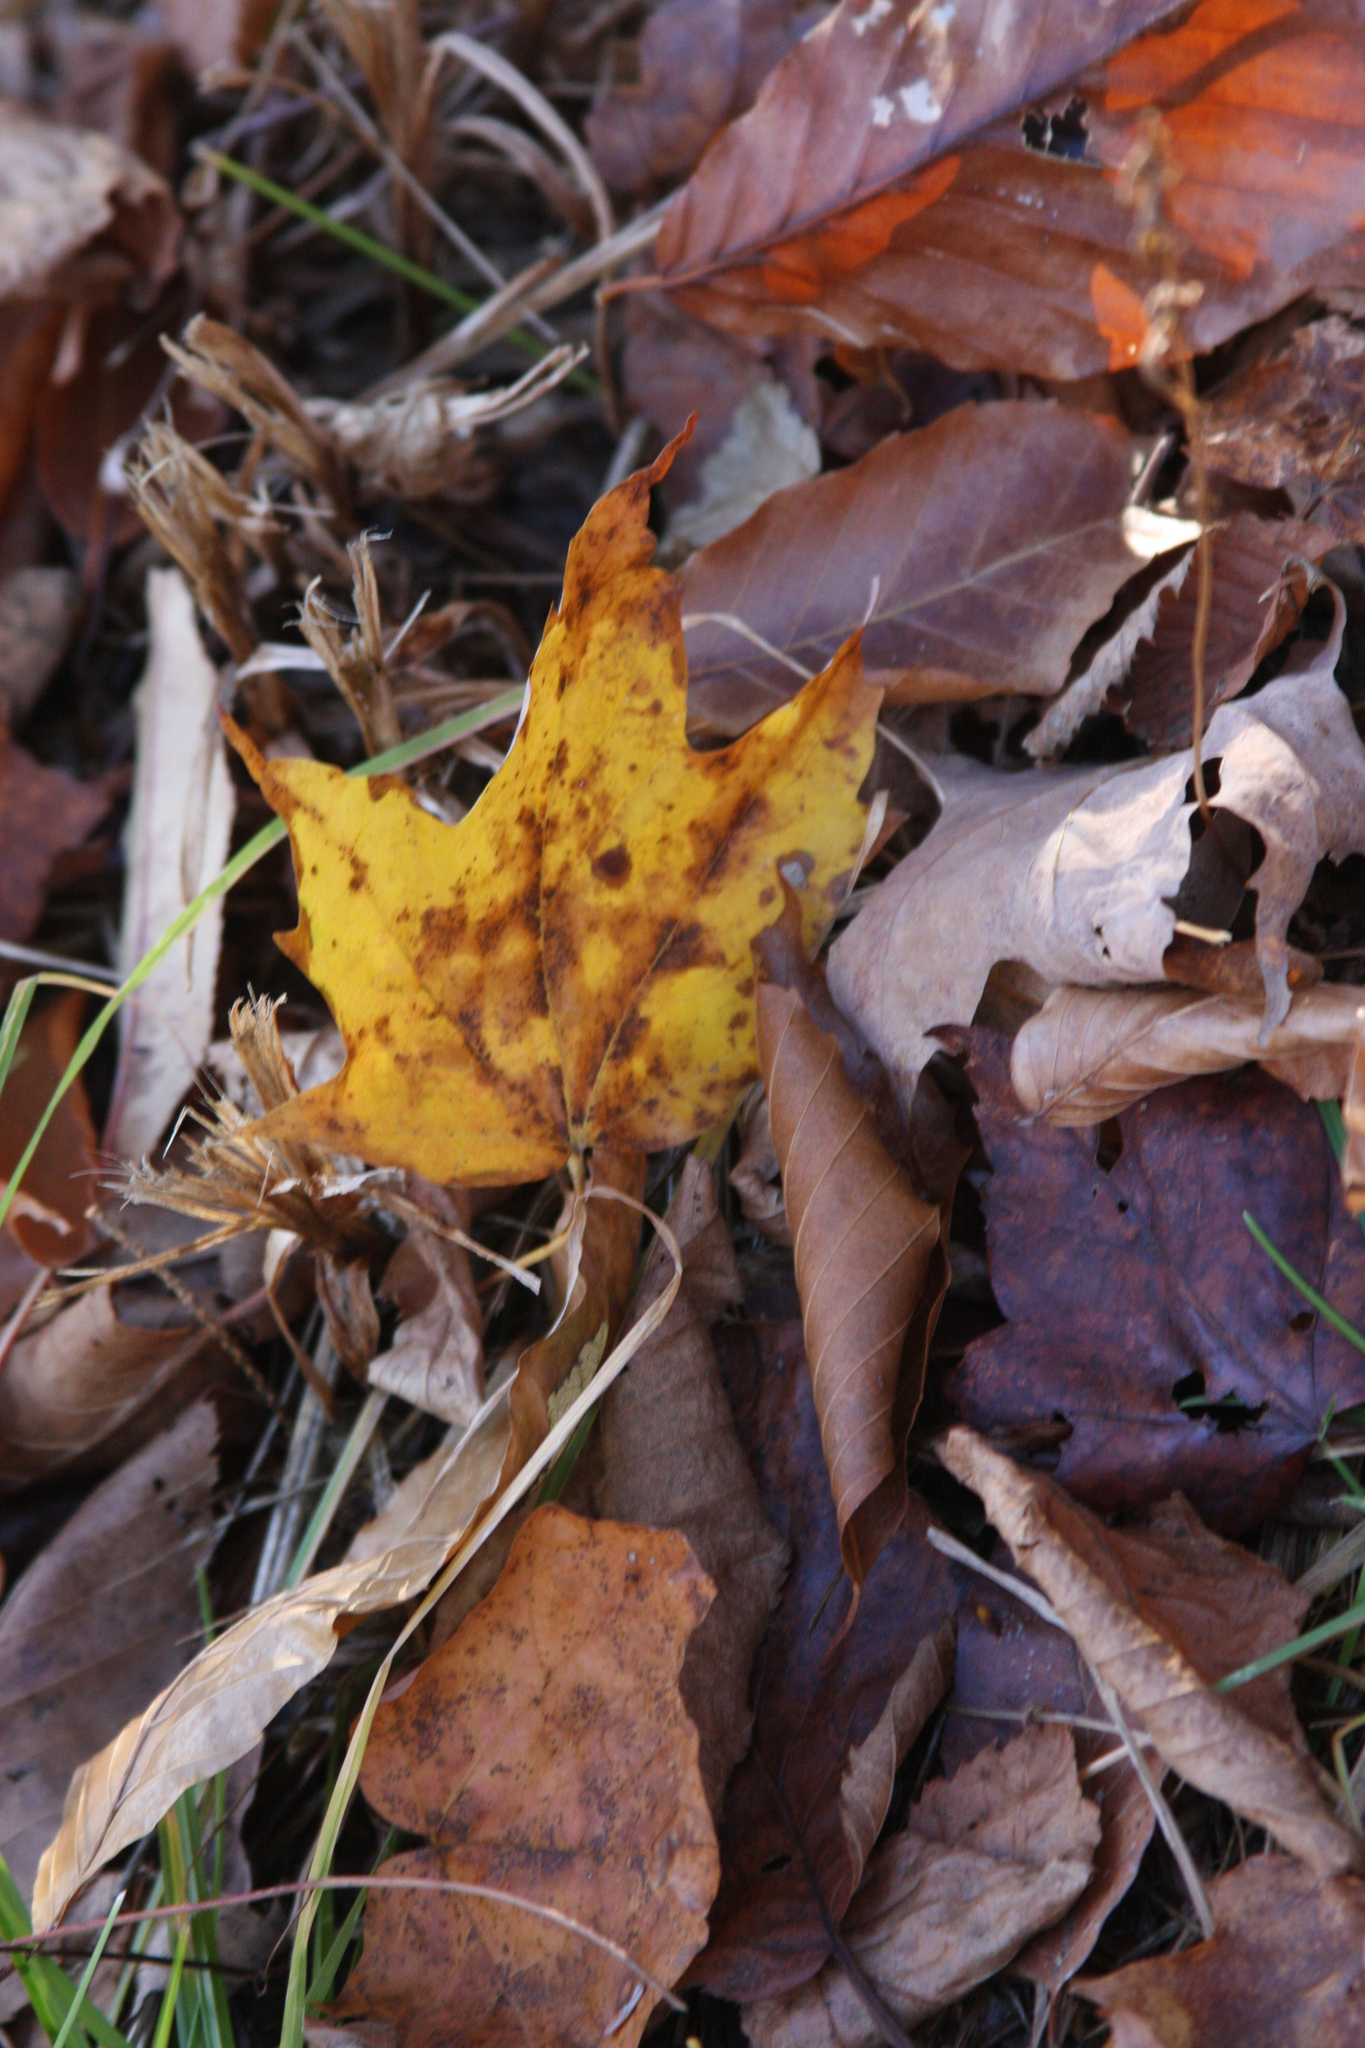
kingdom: Plantae
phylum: Tracheophyta
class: Magnoliopsida
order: Sapindales
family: Sapindaceae
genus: Acer
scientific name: Acer saccharum
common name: Sugar maple
